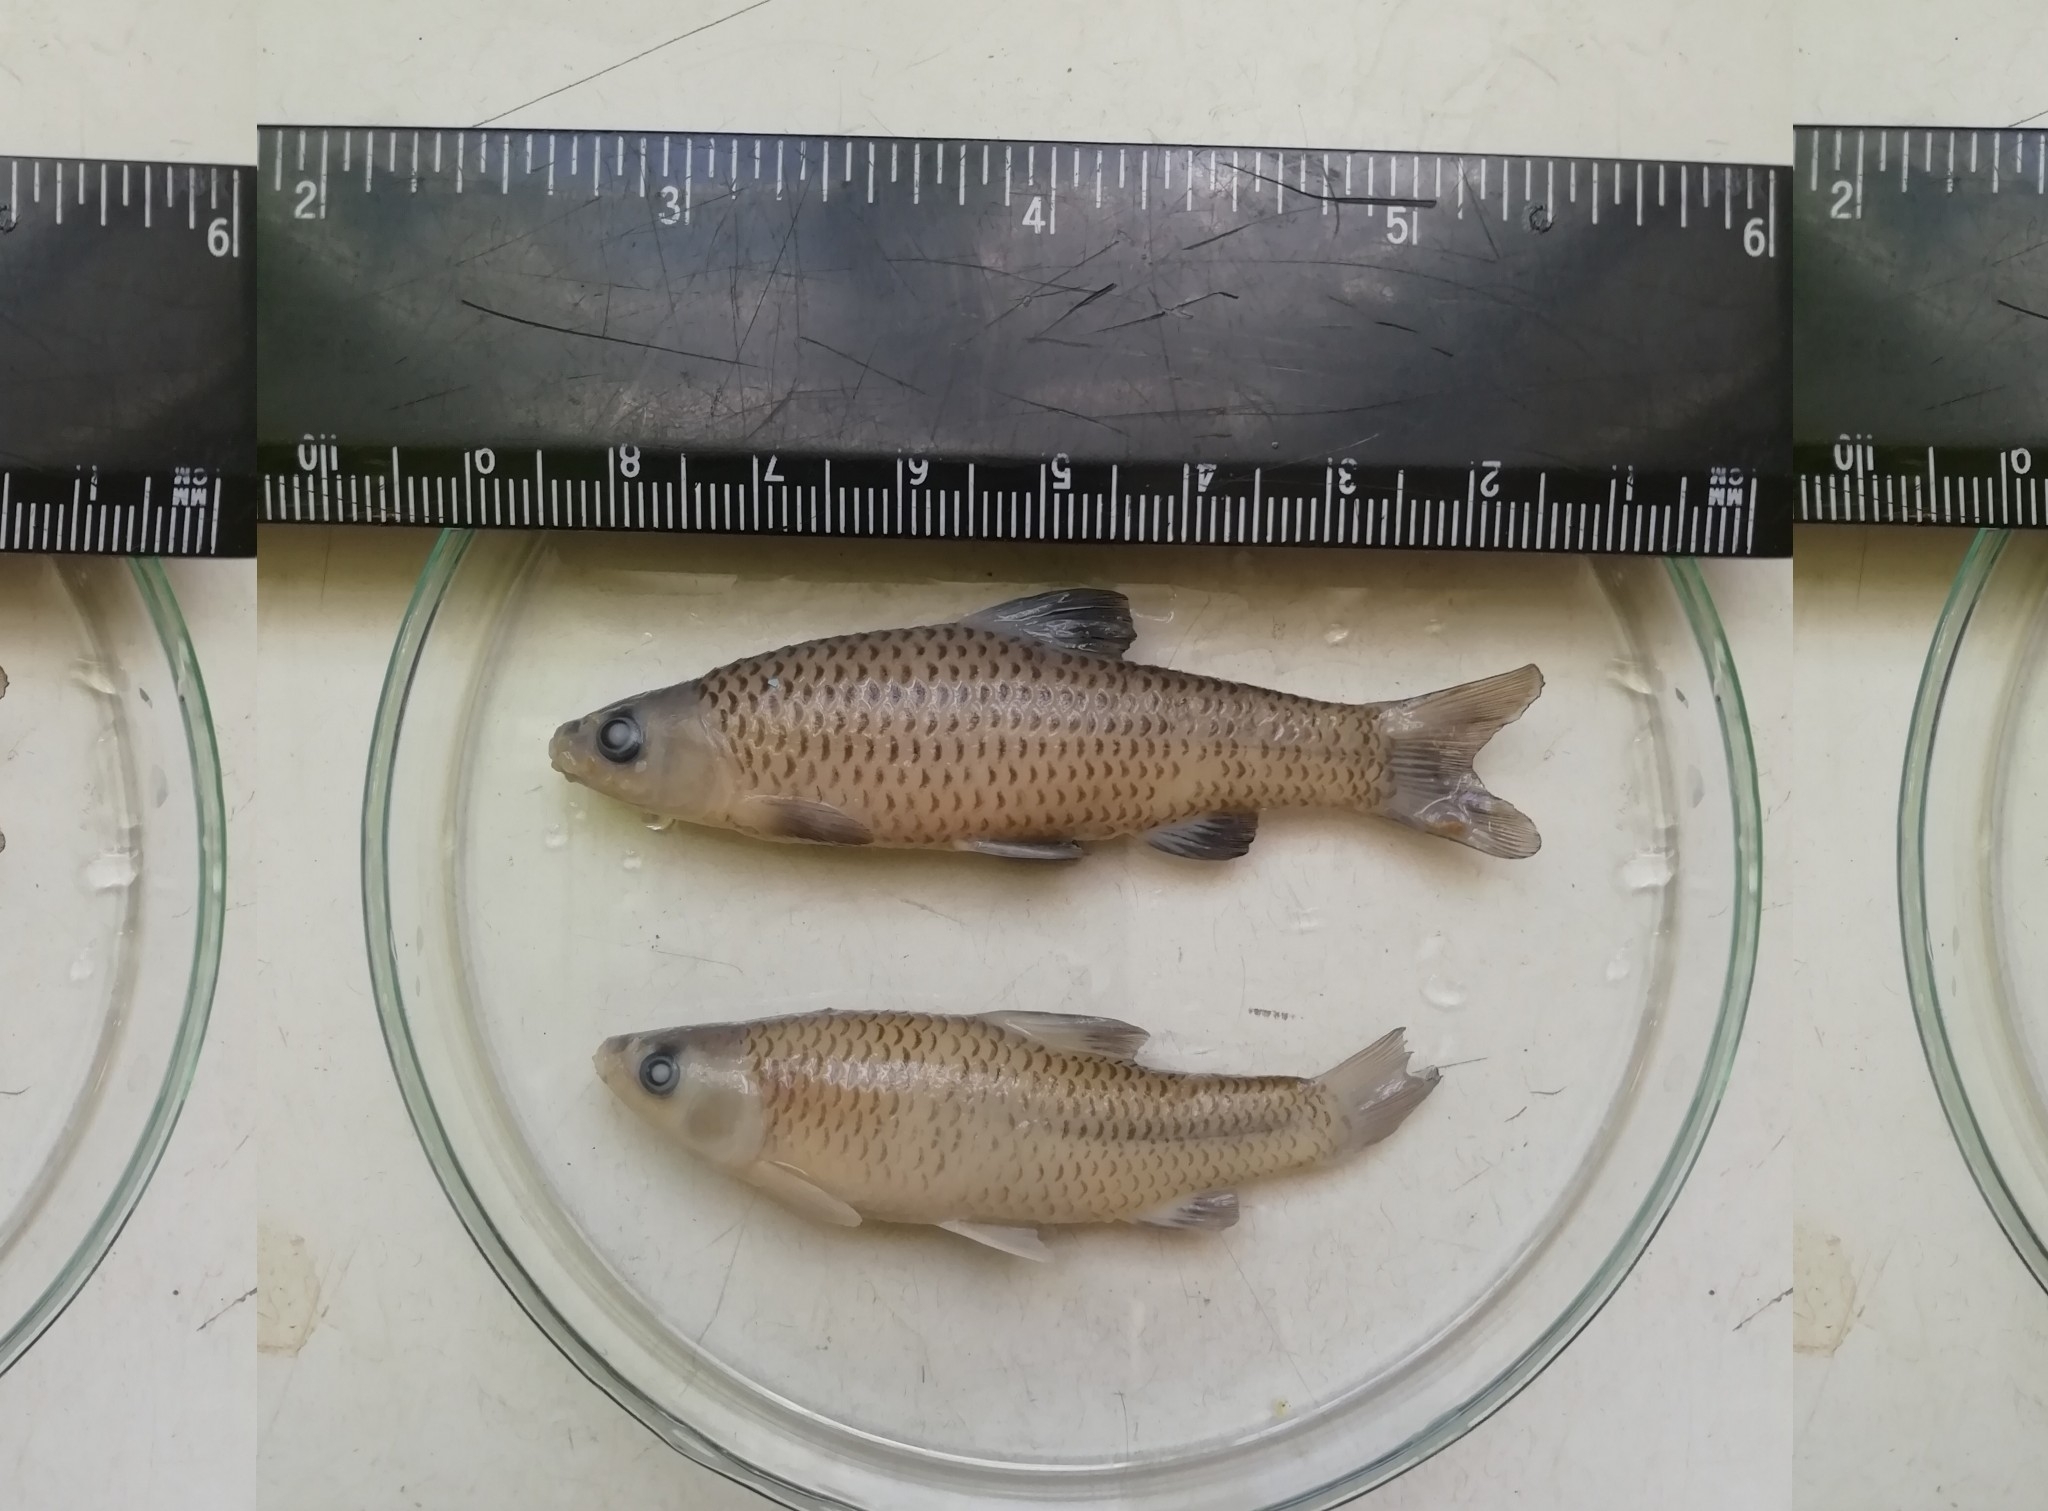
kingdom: Animalia
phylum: Chordata
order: Cypriniformes
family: Cyprinidae
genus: Pseudorasbora
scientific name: Pseudorasbora parva
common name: Topmouth gudgeon
